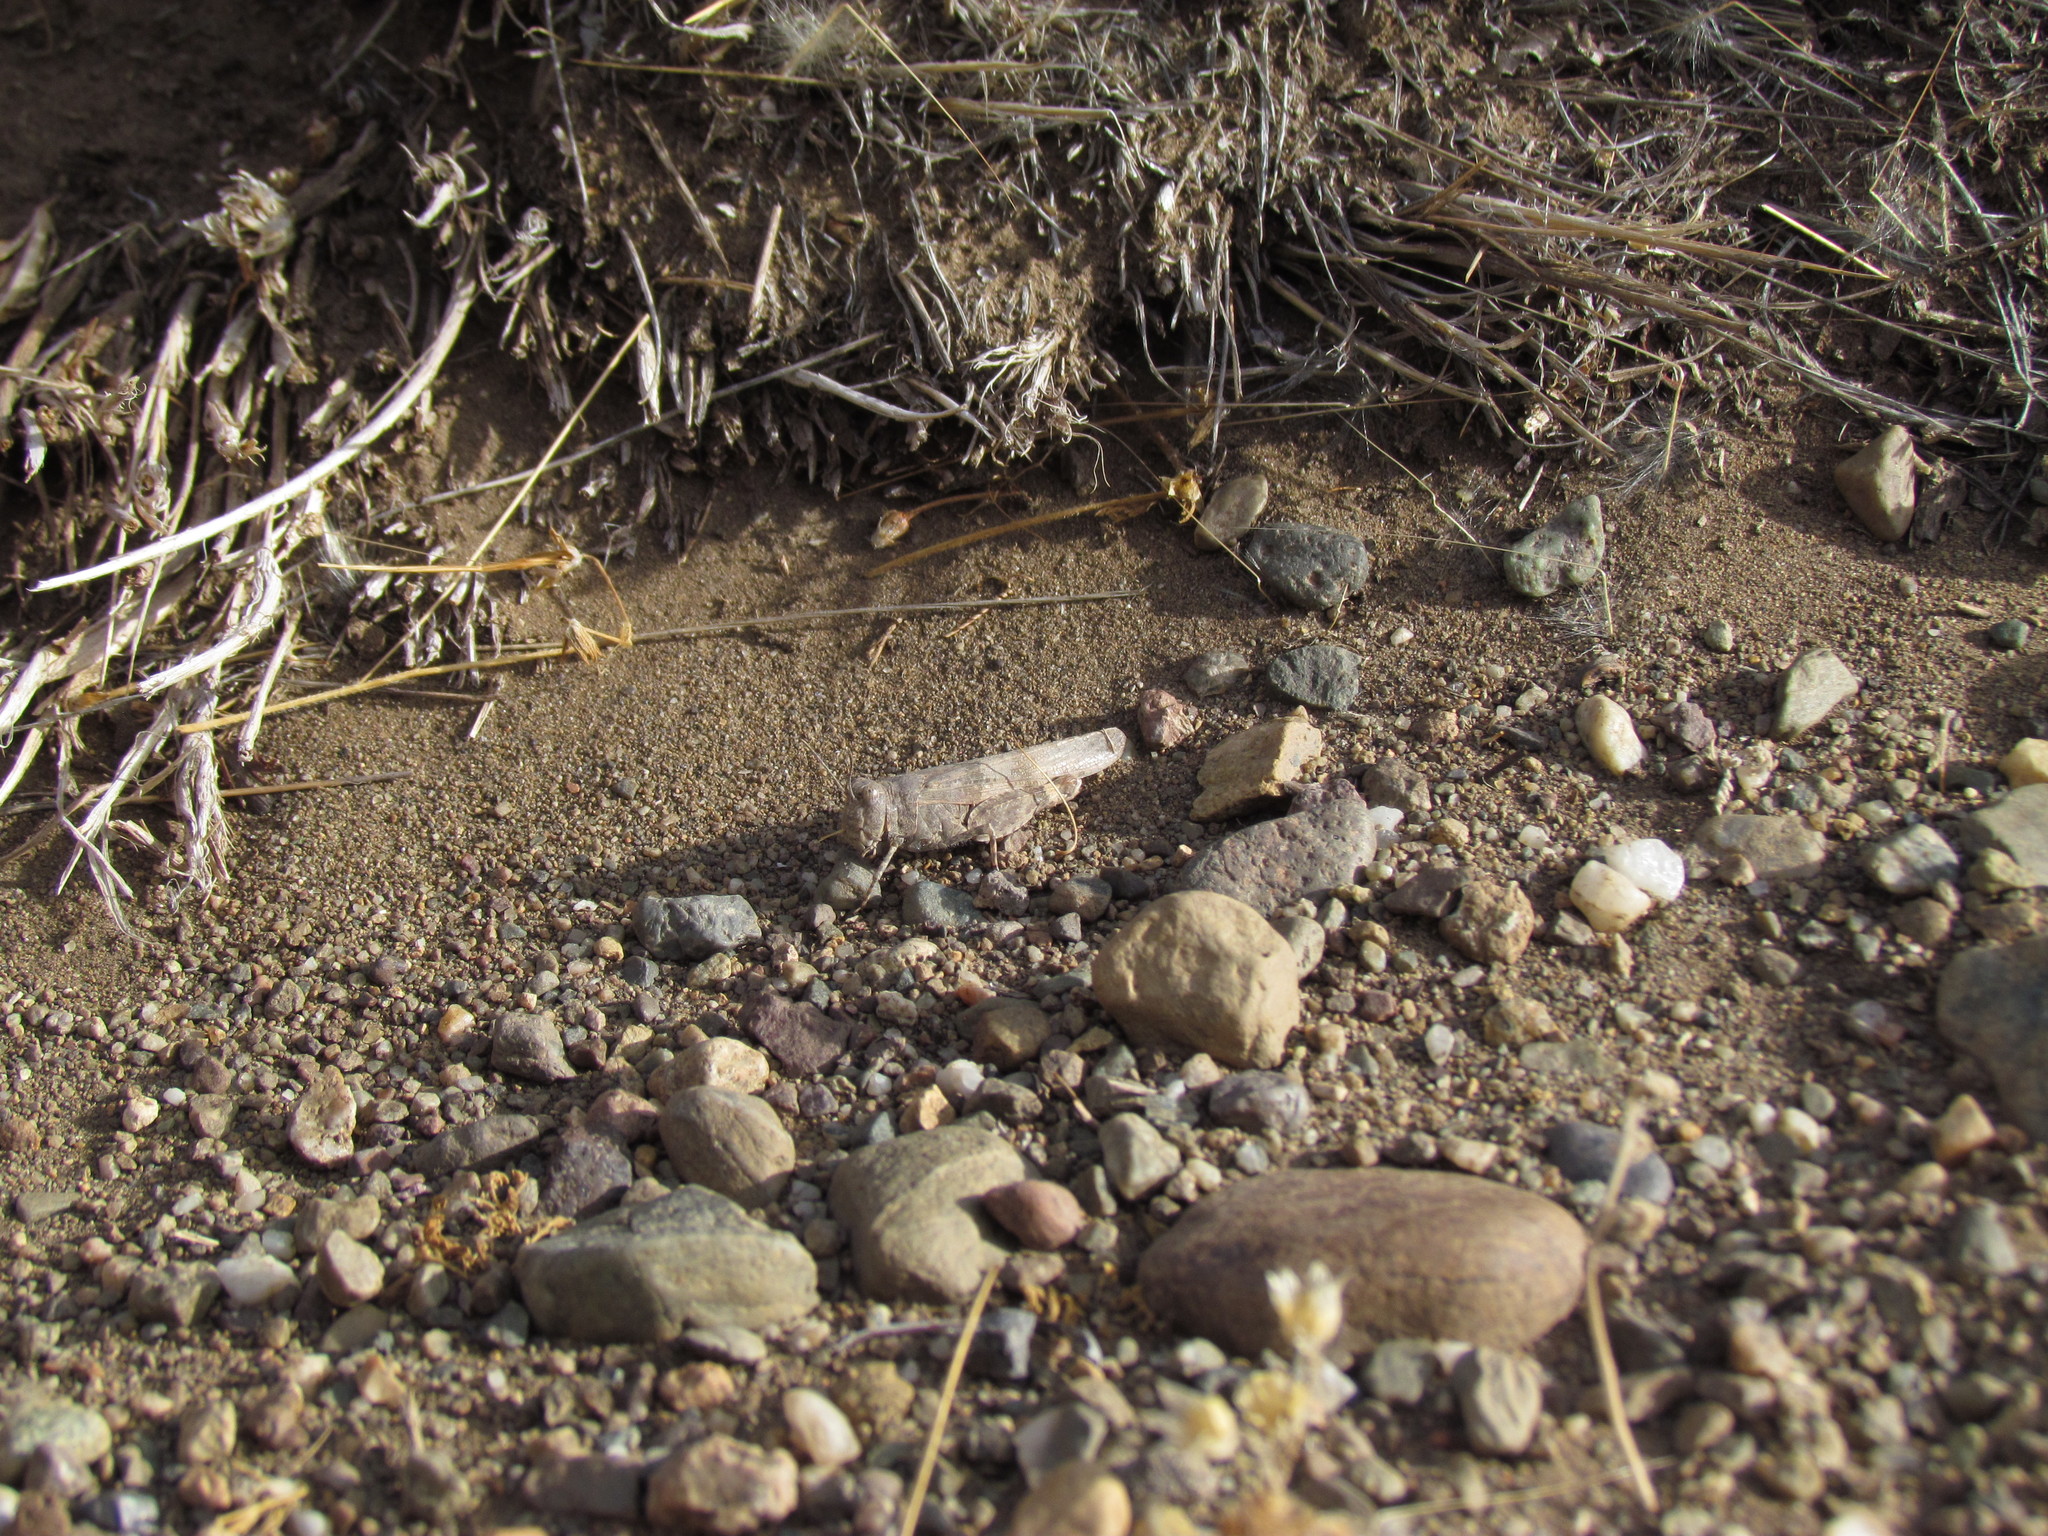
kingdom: Animalia
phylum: Arthropoda
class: Insecta
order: Orthoptera
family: Acrididae
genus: Trimerotropis
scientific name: Trimerotropis pallidipennis
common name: Pallid-winged grasshopper
